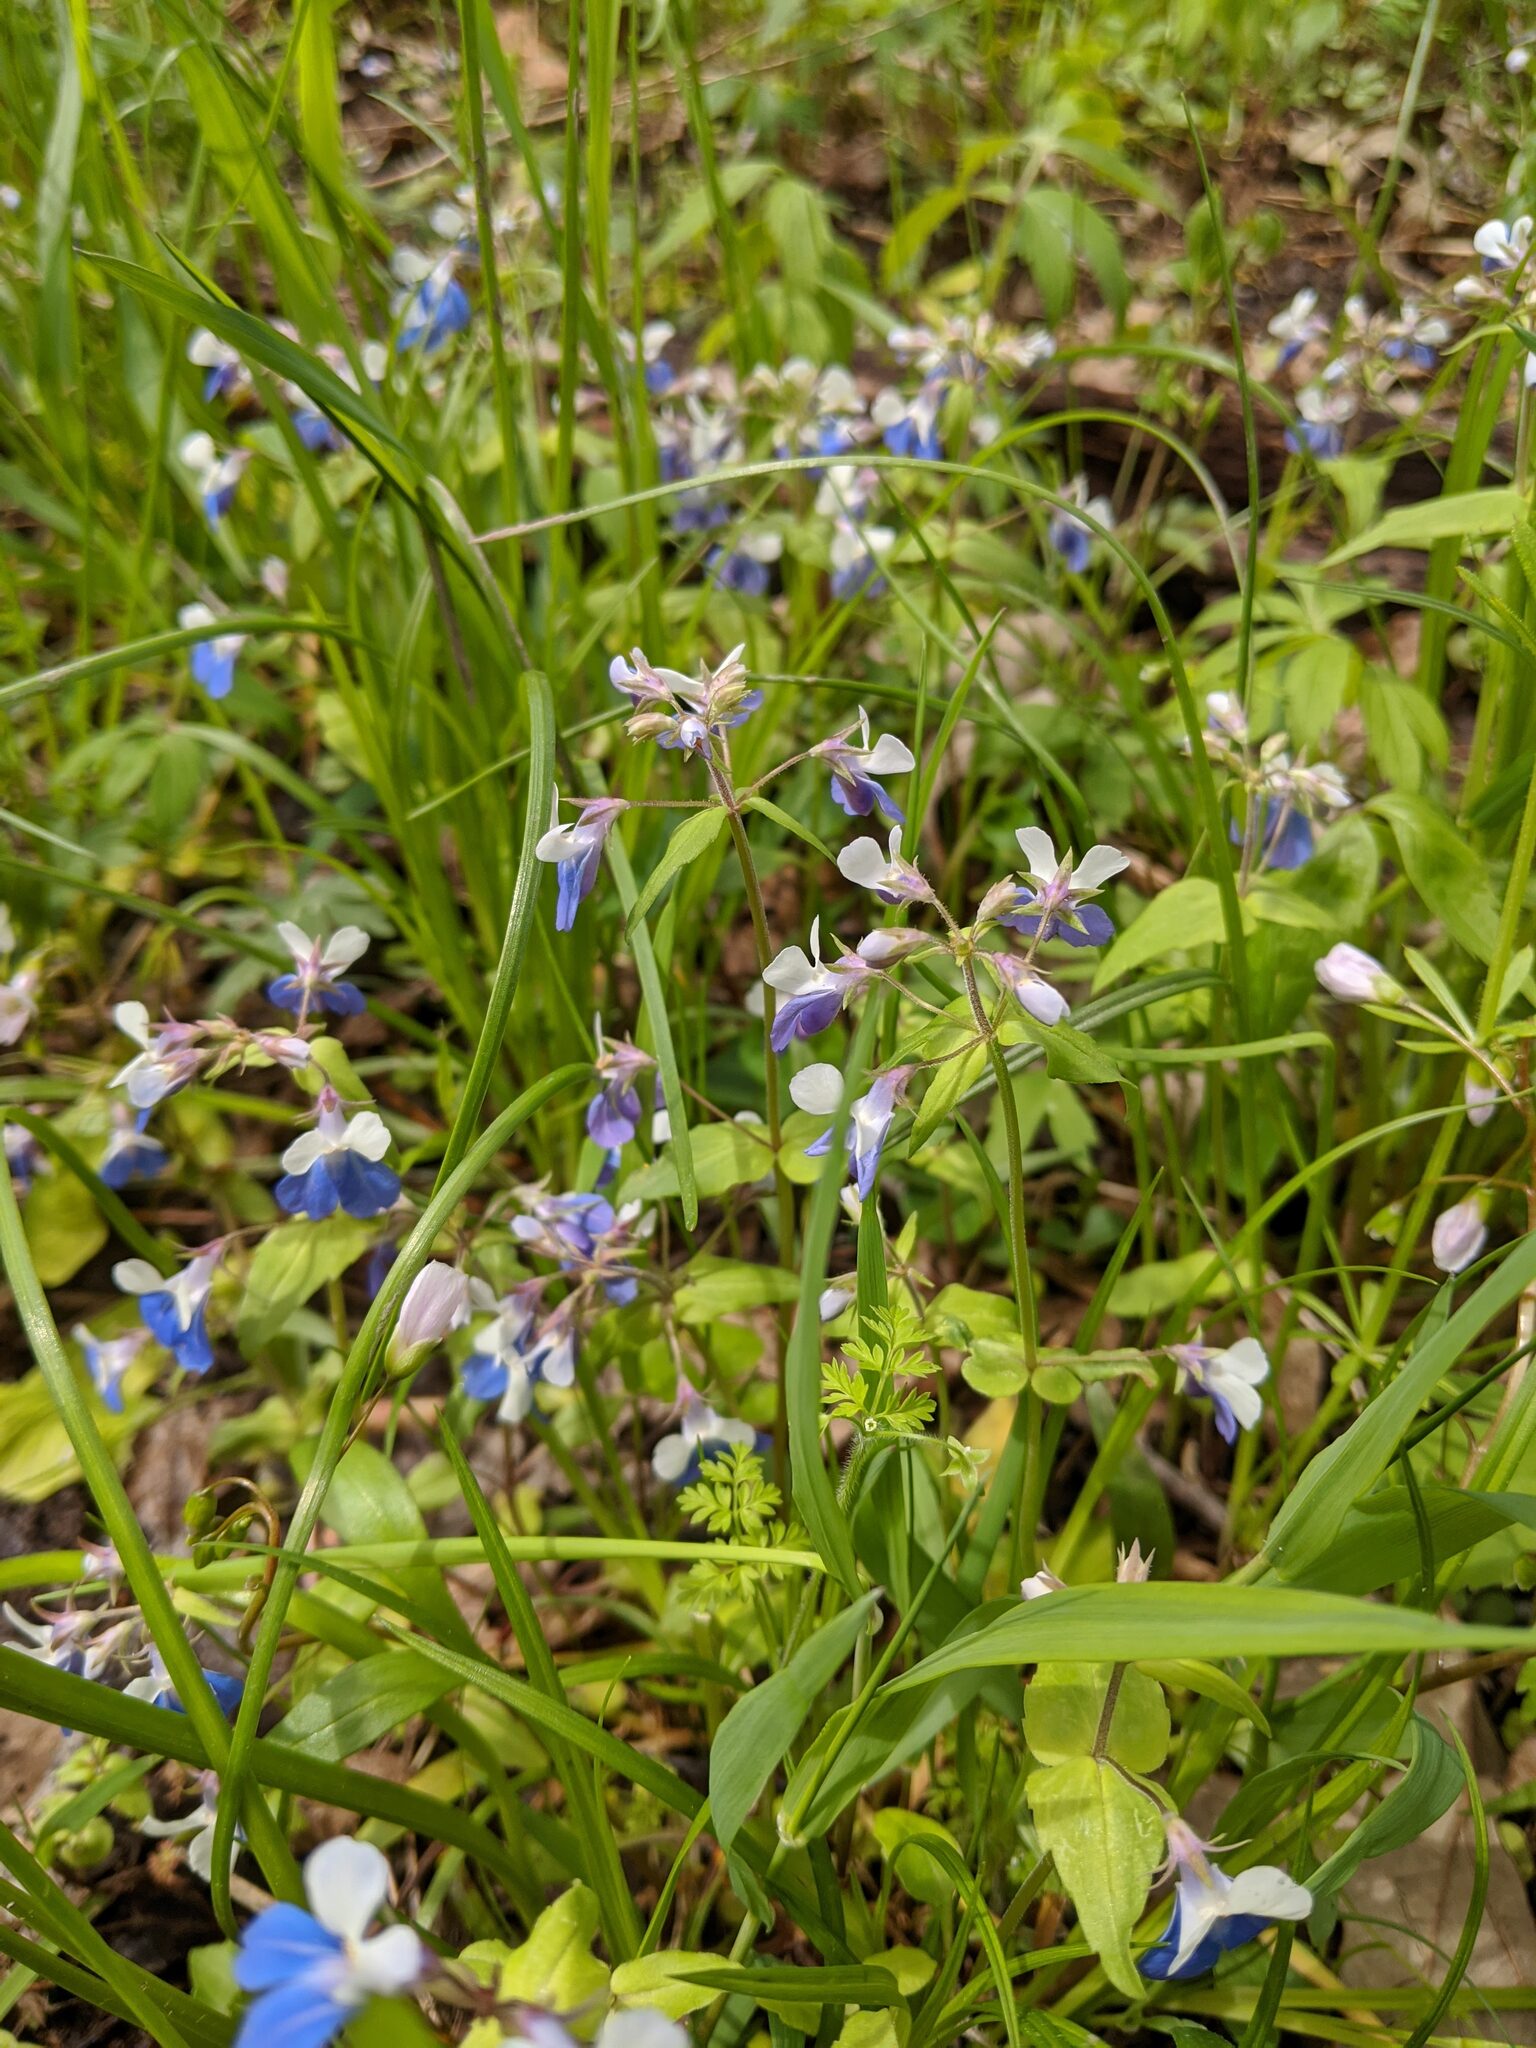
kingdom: Plantae
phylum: Tracheophyta
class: Magnoliopsida
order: Lamiales
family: Plantaginaceae
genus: Collinsia
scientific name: Collinsia verna
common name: Broad-leaved collinsia
